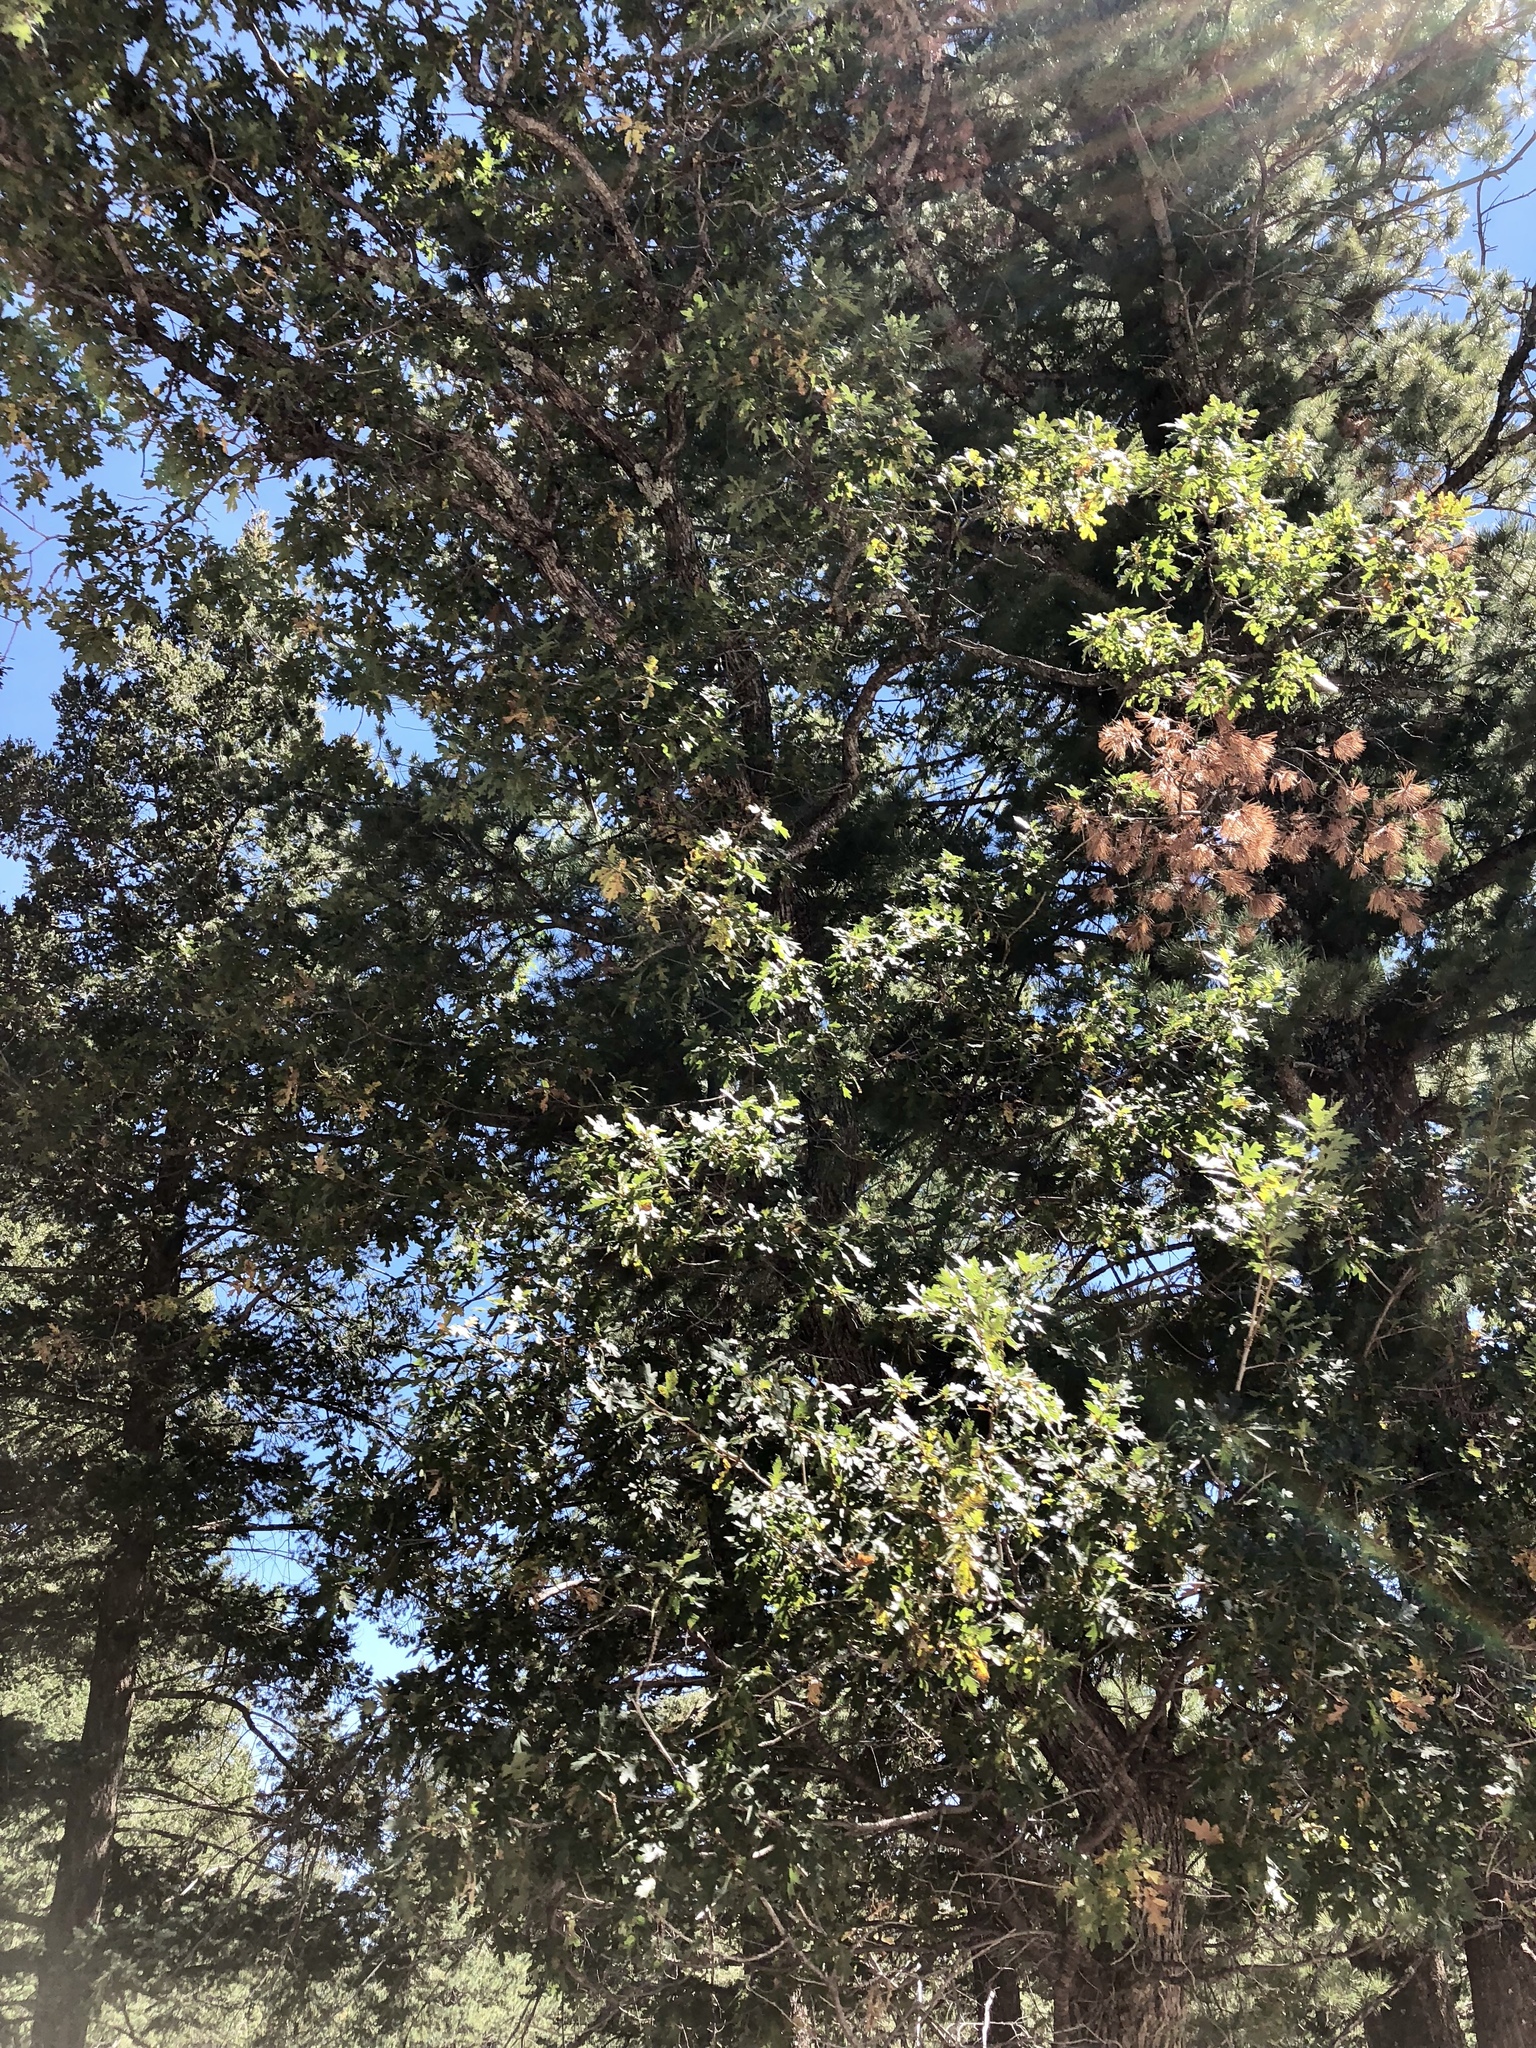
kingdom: Plantae
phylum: Tracheophyta
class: Magnoliopsida
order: Fagales
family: Fagaceae
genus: Quercus
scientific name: Quercus gambelii
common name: Gambel oak
